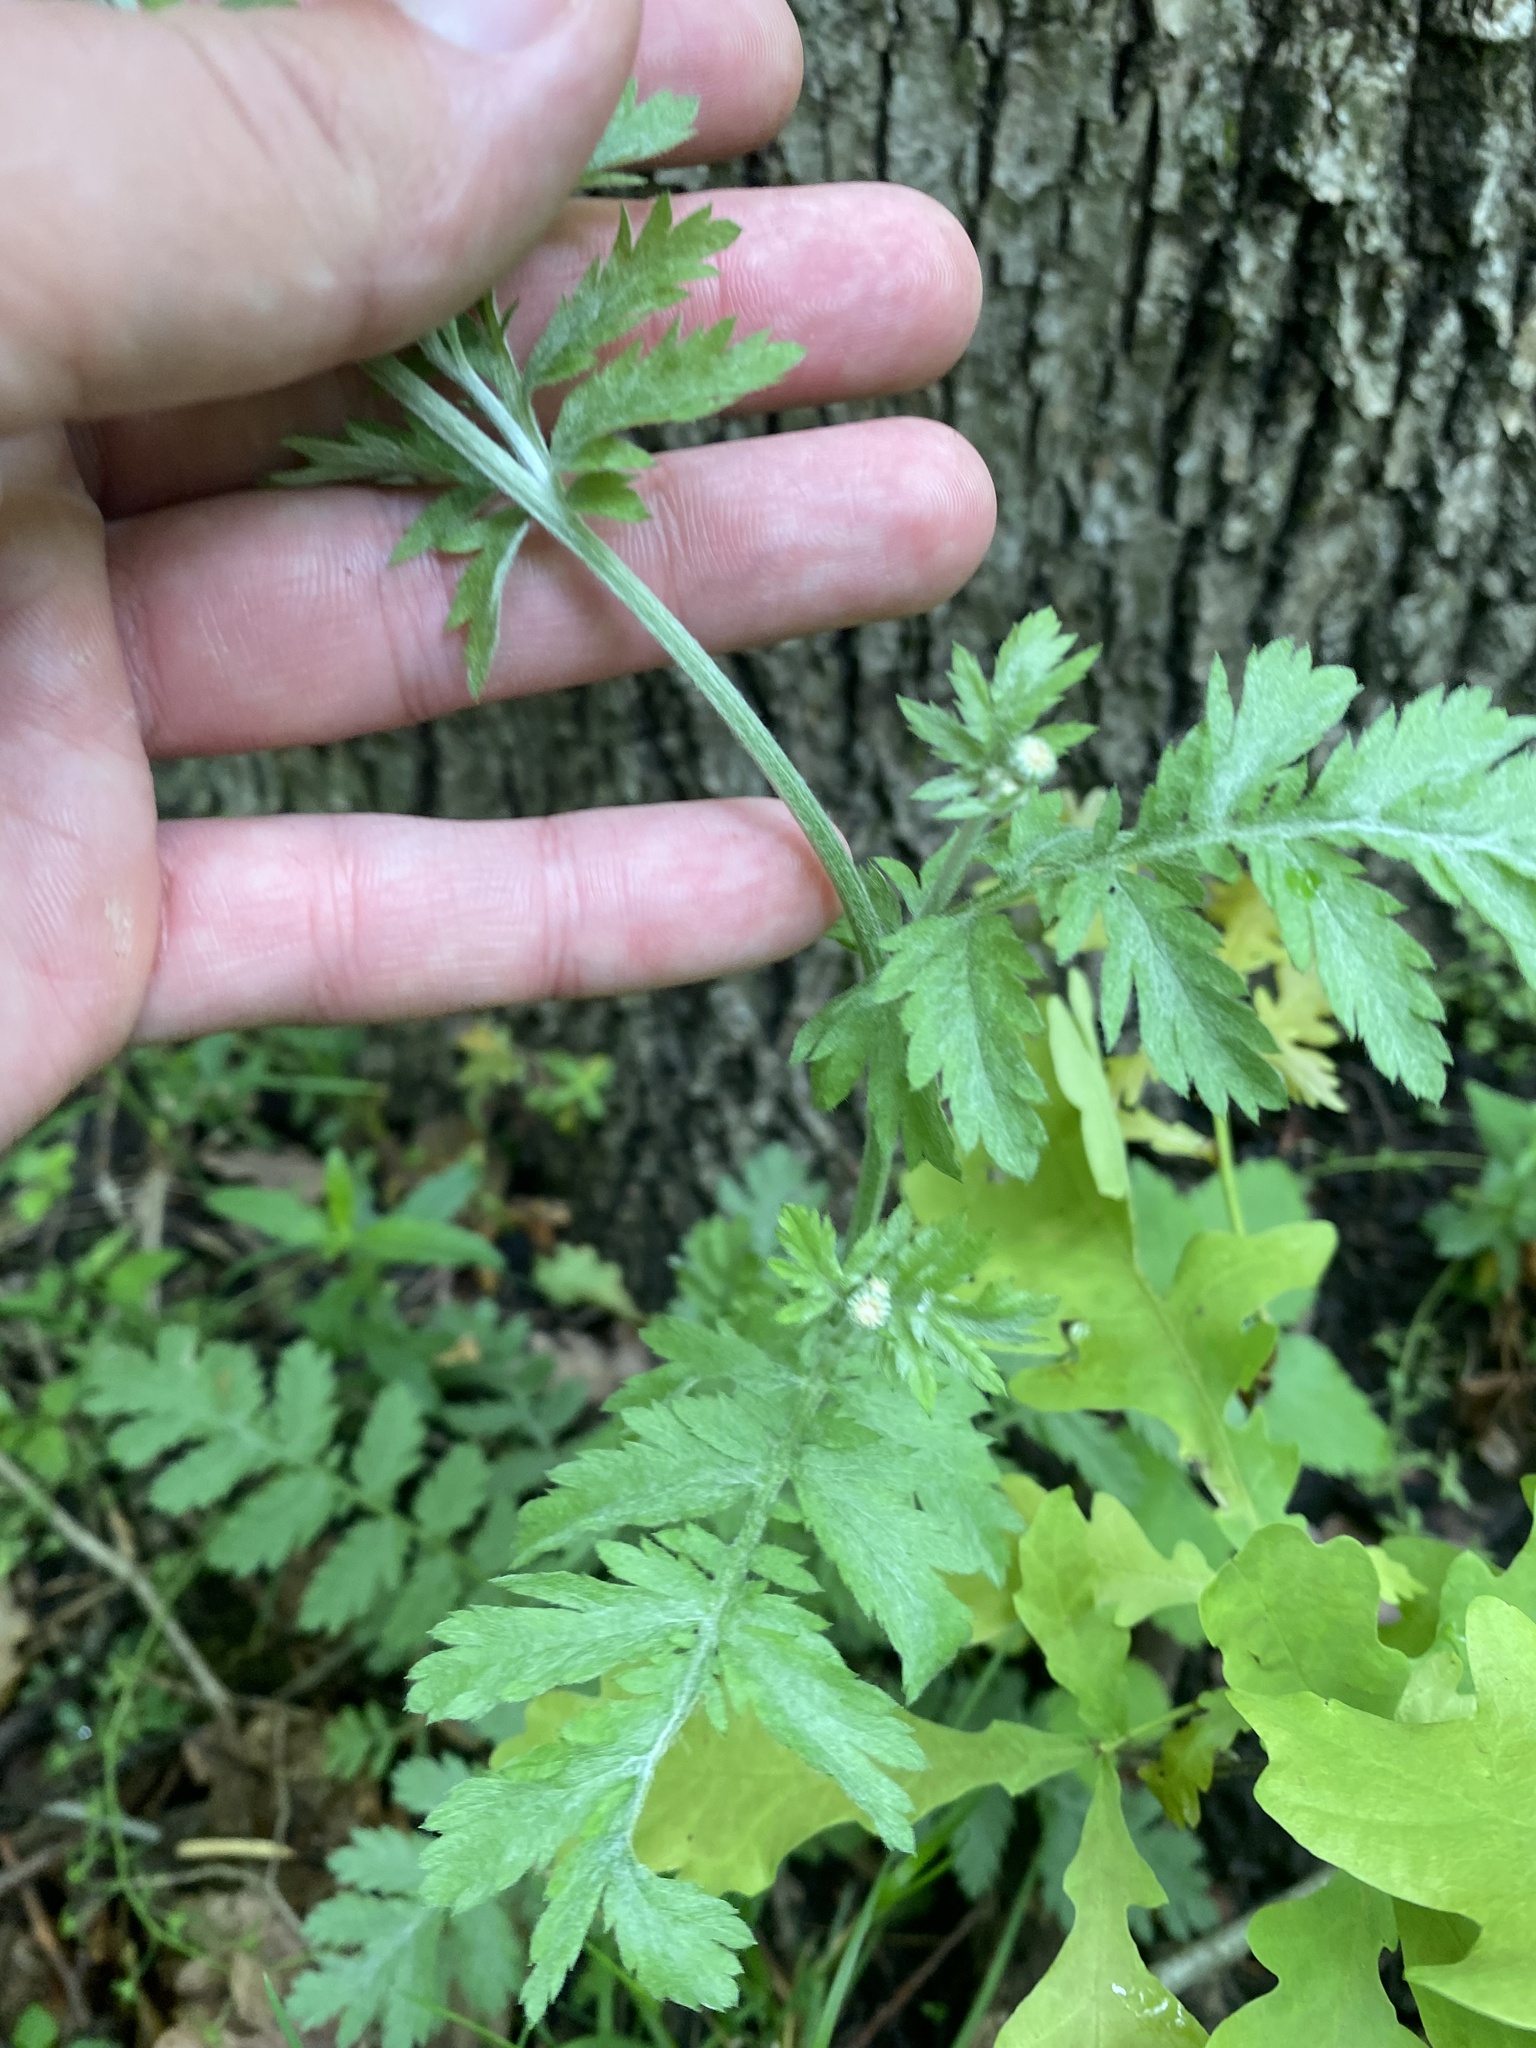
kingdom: Plantae
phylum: Tracheophyta
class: Magnoliopsida
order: Asterales
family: Asteraceae
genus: Tanacetum
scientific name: Tanacetum poteriifolium
